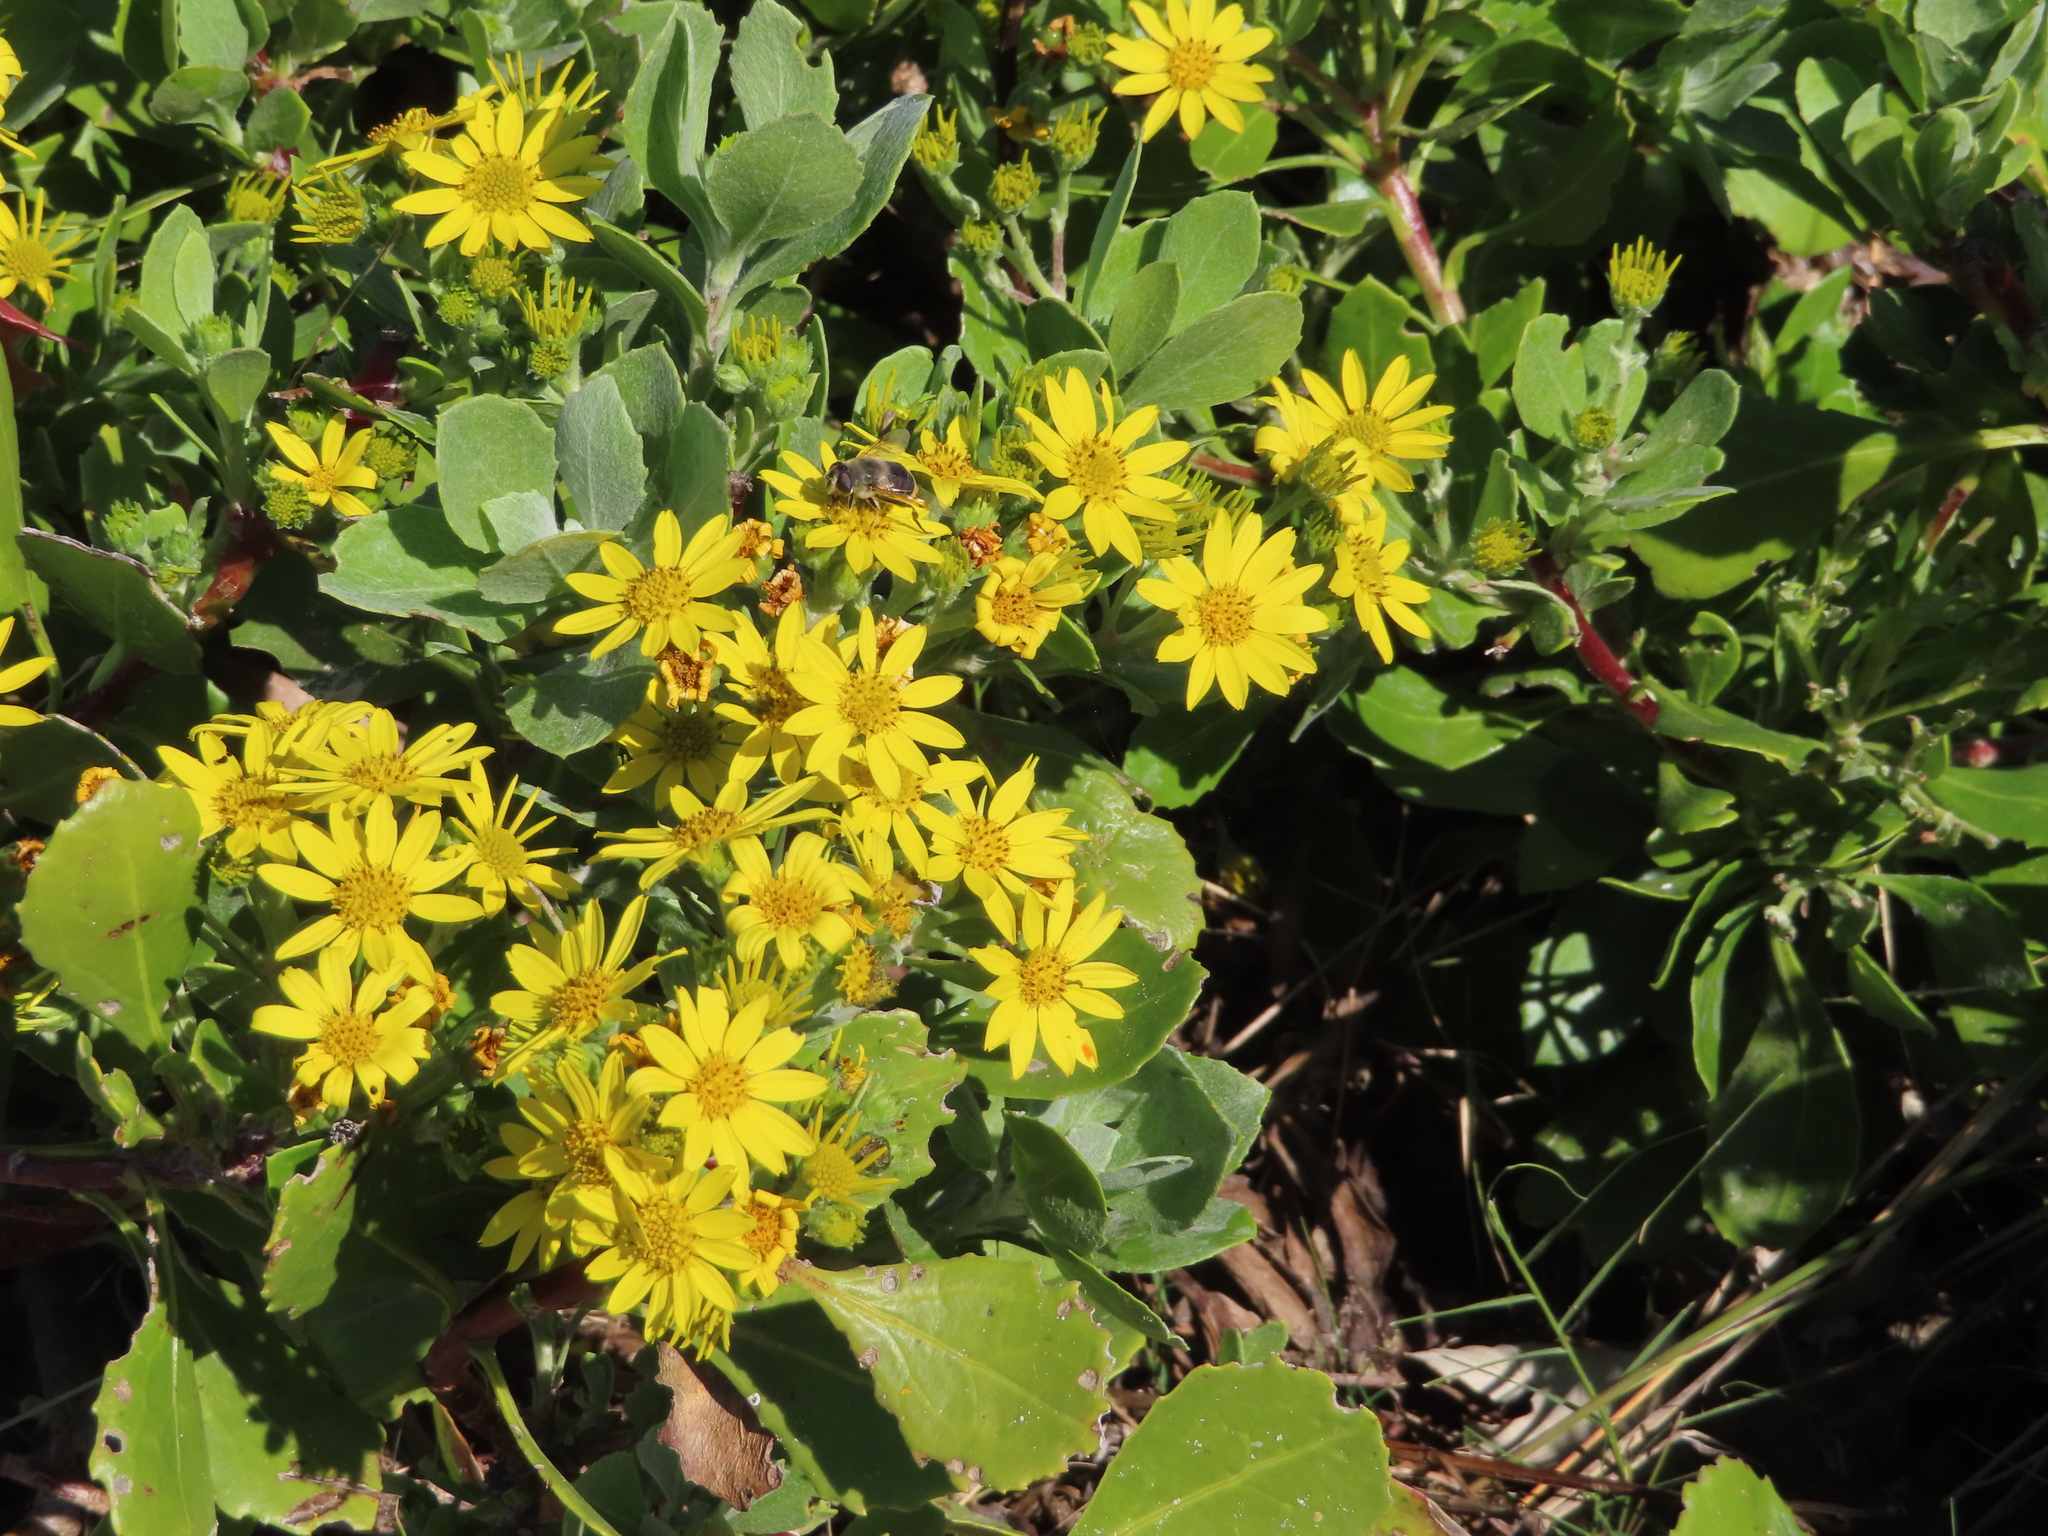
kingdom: Animalia
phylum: Arthropoda
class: Insecta
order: Diptera
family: Syrphidae
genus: Eristalis
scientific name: Eristalis tenax
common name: Drone fly
